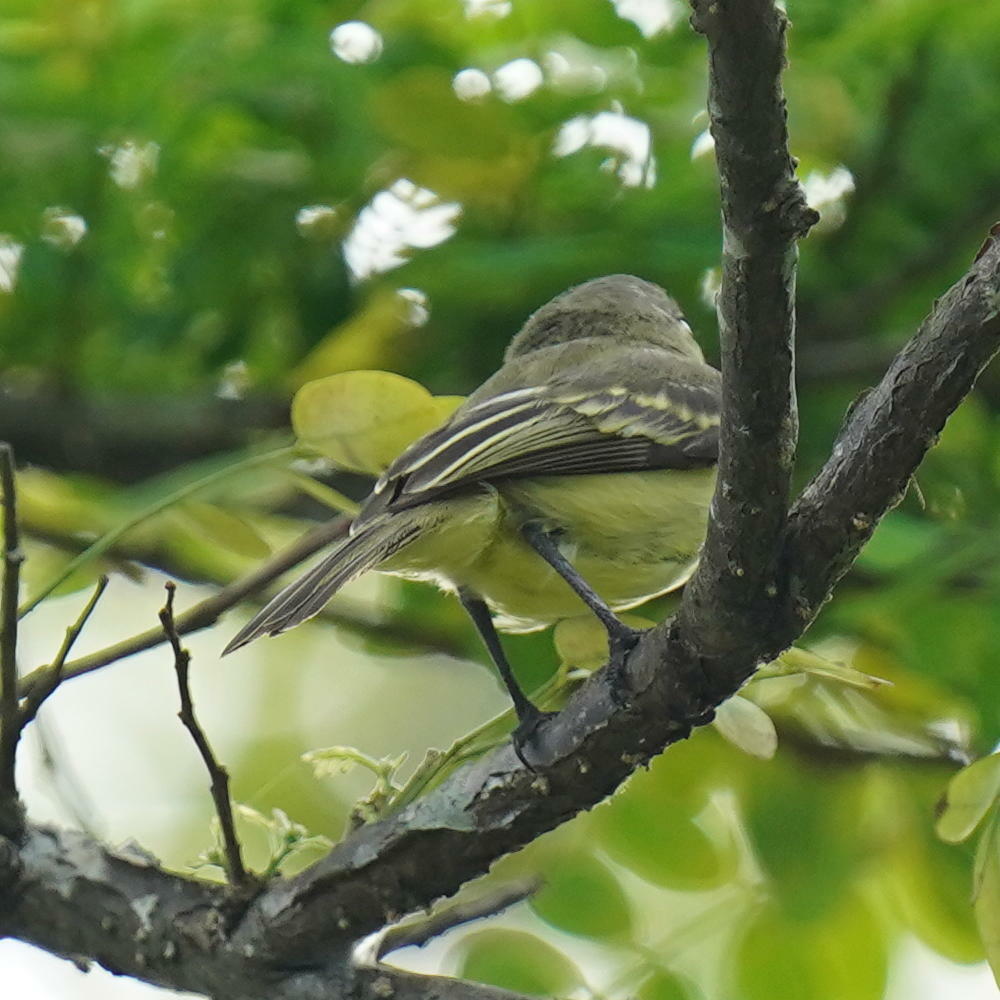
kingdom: Animalia
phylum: Chordata
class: Aves
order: Passeriformes
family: Tyrannidae
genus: Tyrannulus
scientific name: Tyrannulus elatus
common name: Yellow-crowned tyrannulet
